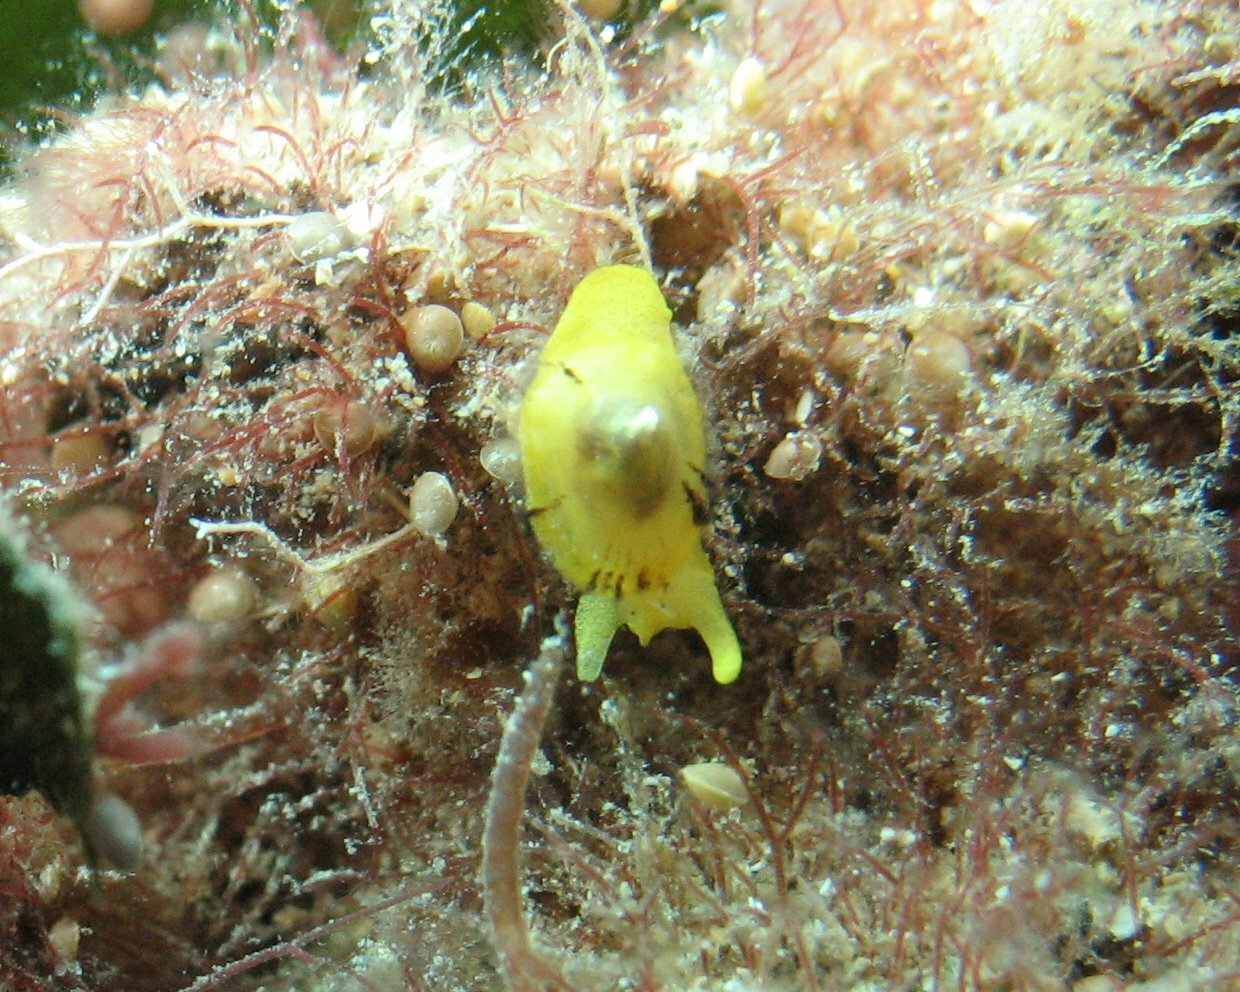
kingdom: Animalia
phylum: Mollusca
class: Gastropoda
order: Umbraculida
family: Tylodinidae
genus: Tylodina
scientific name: Tylodina perversa
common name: Yellow tylodina
